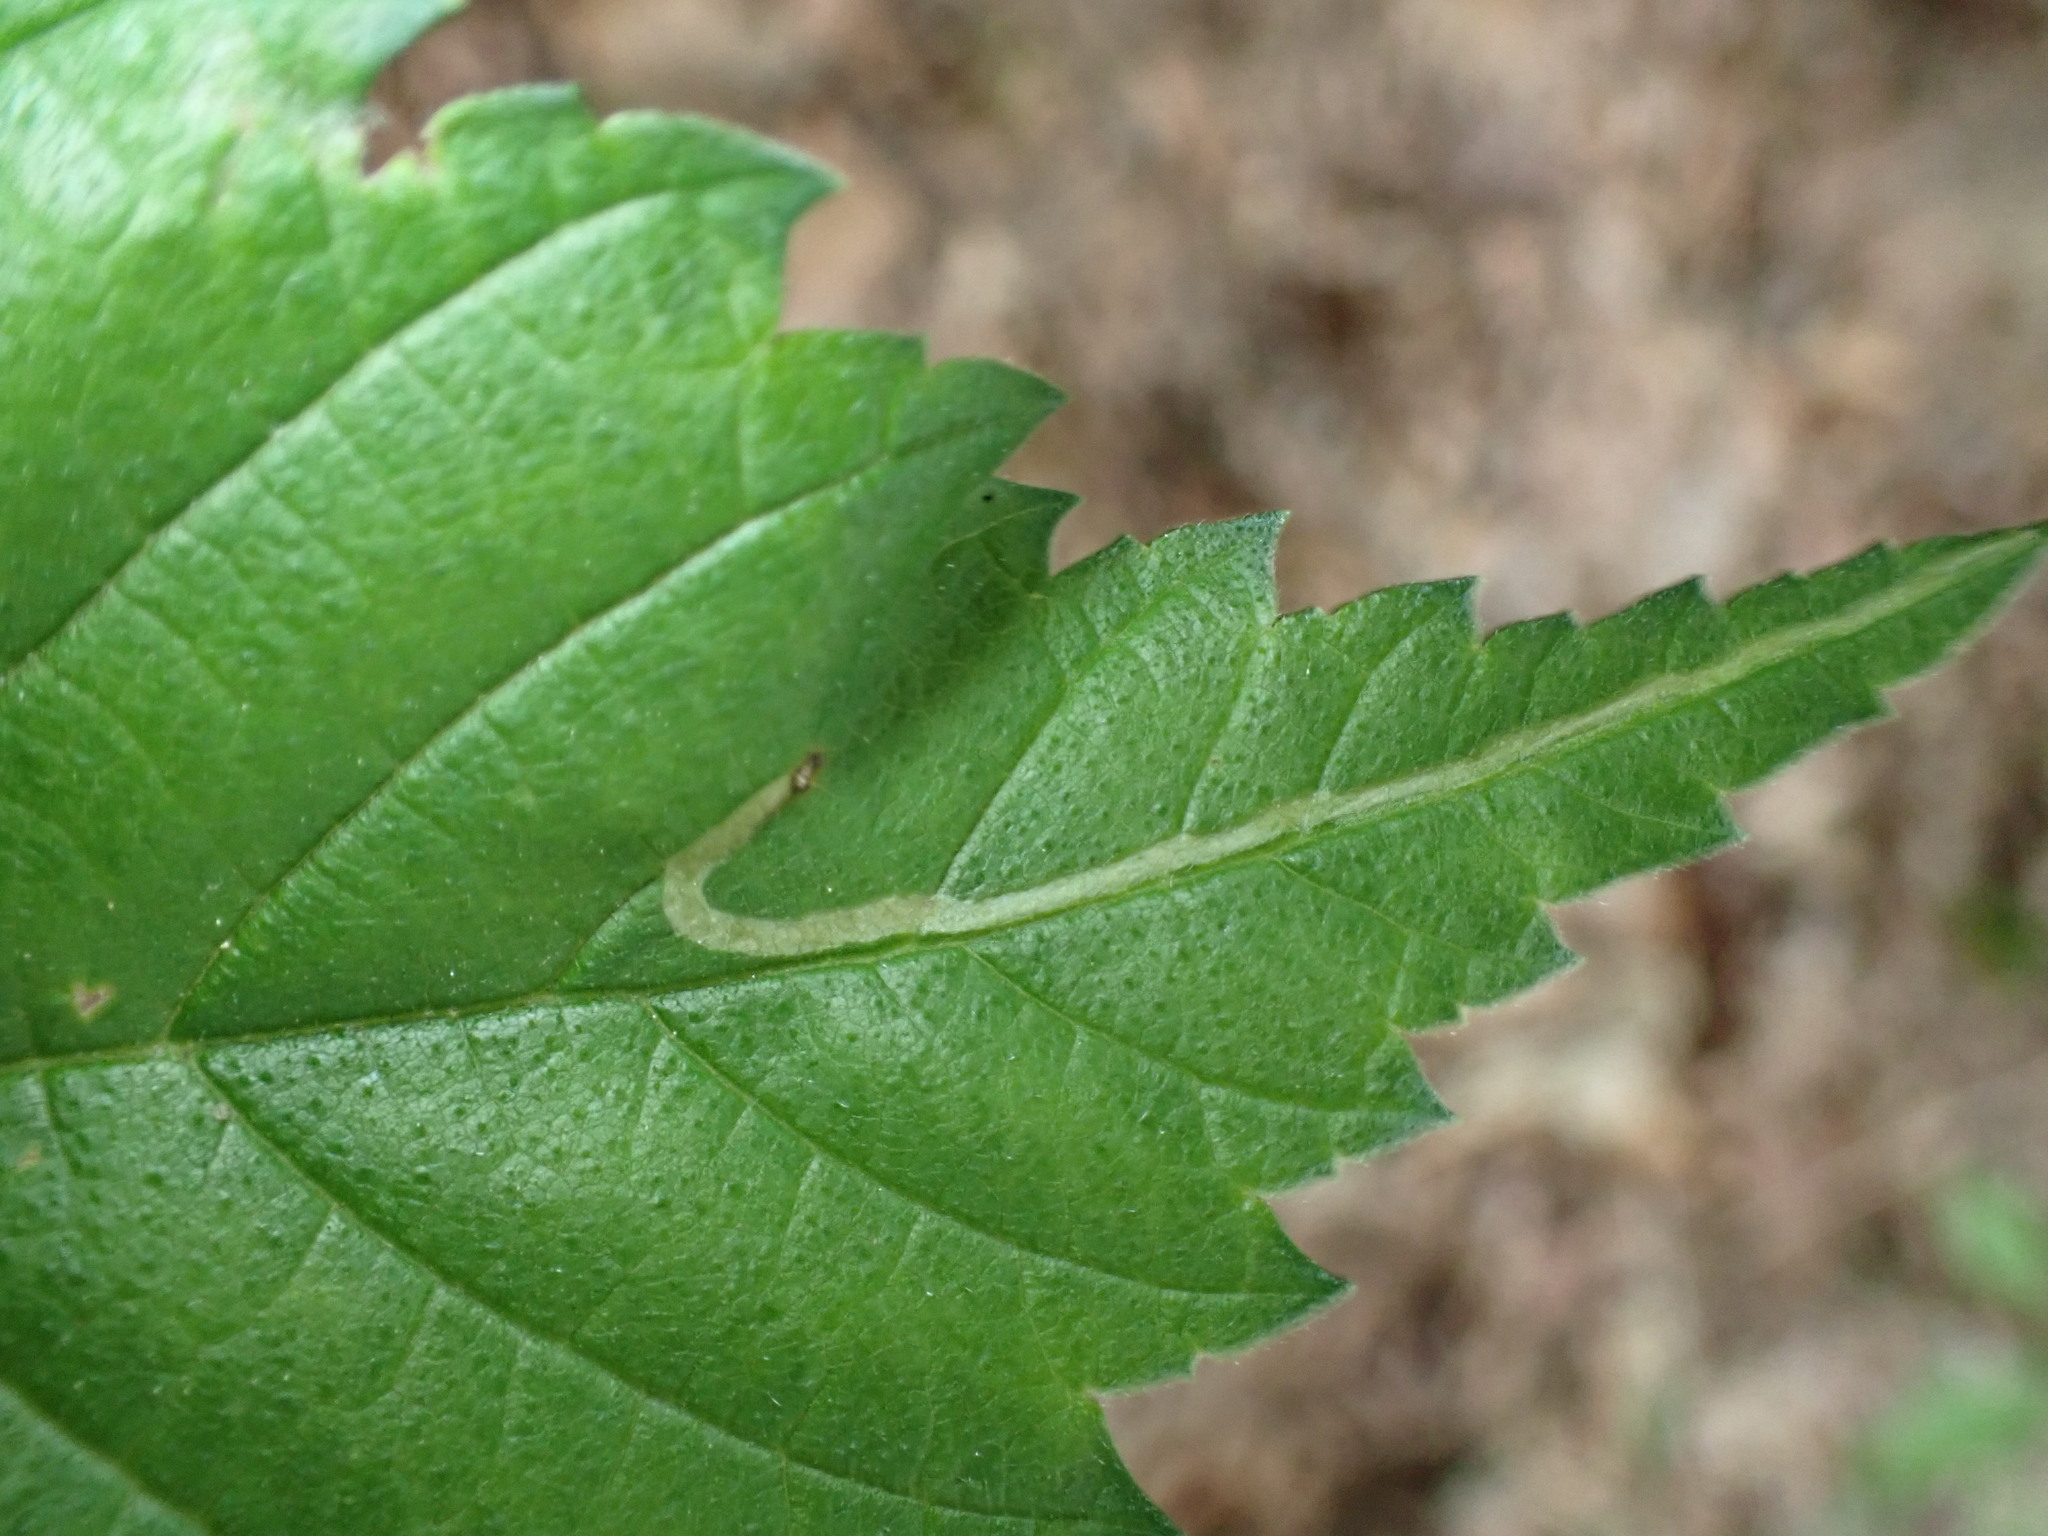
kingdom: Animalia
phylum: Arthropoda
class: Insecta
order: Diptera
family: Agromyzidae
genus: Agromyza
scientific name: Agromyza aristata
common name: Elm agromyzid leafminer
